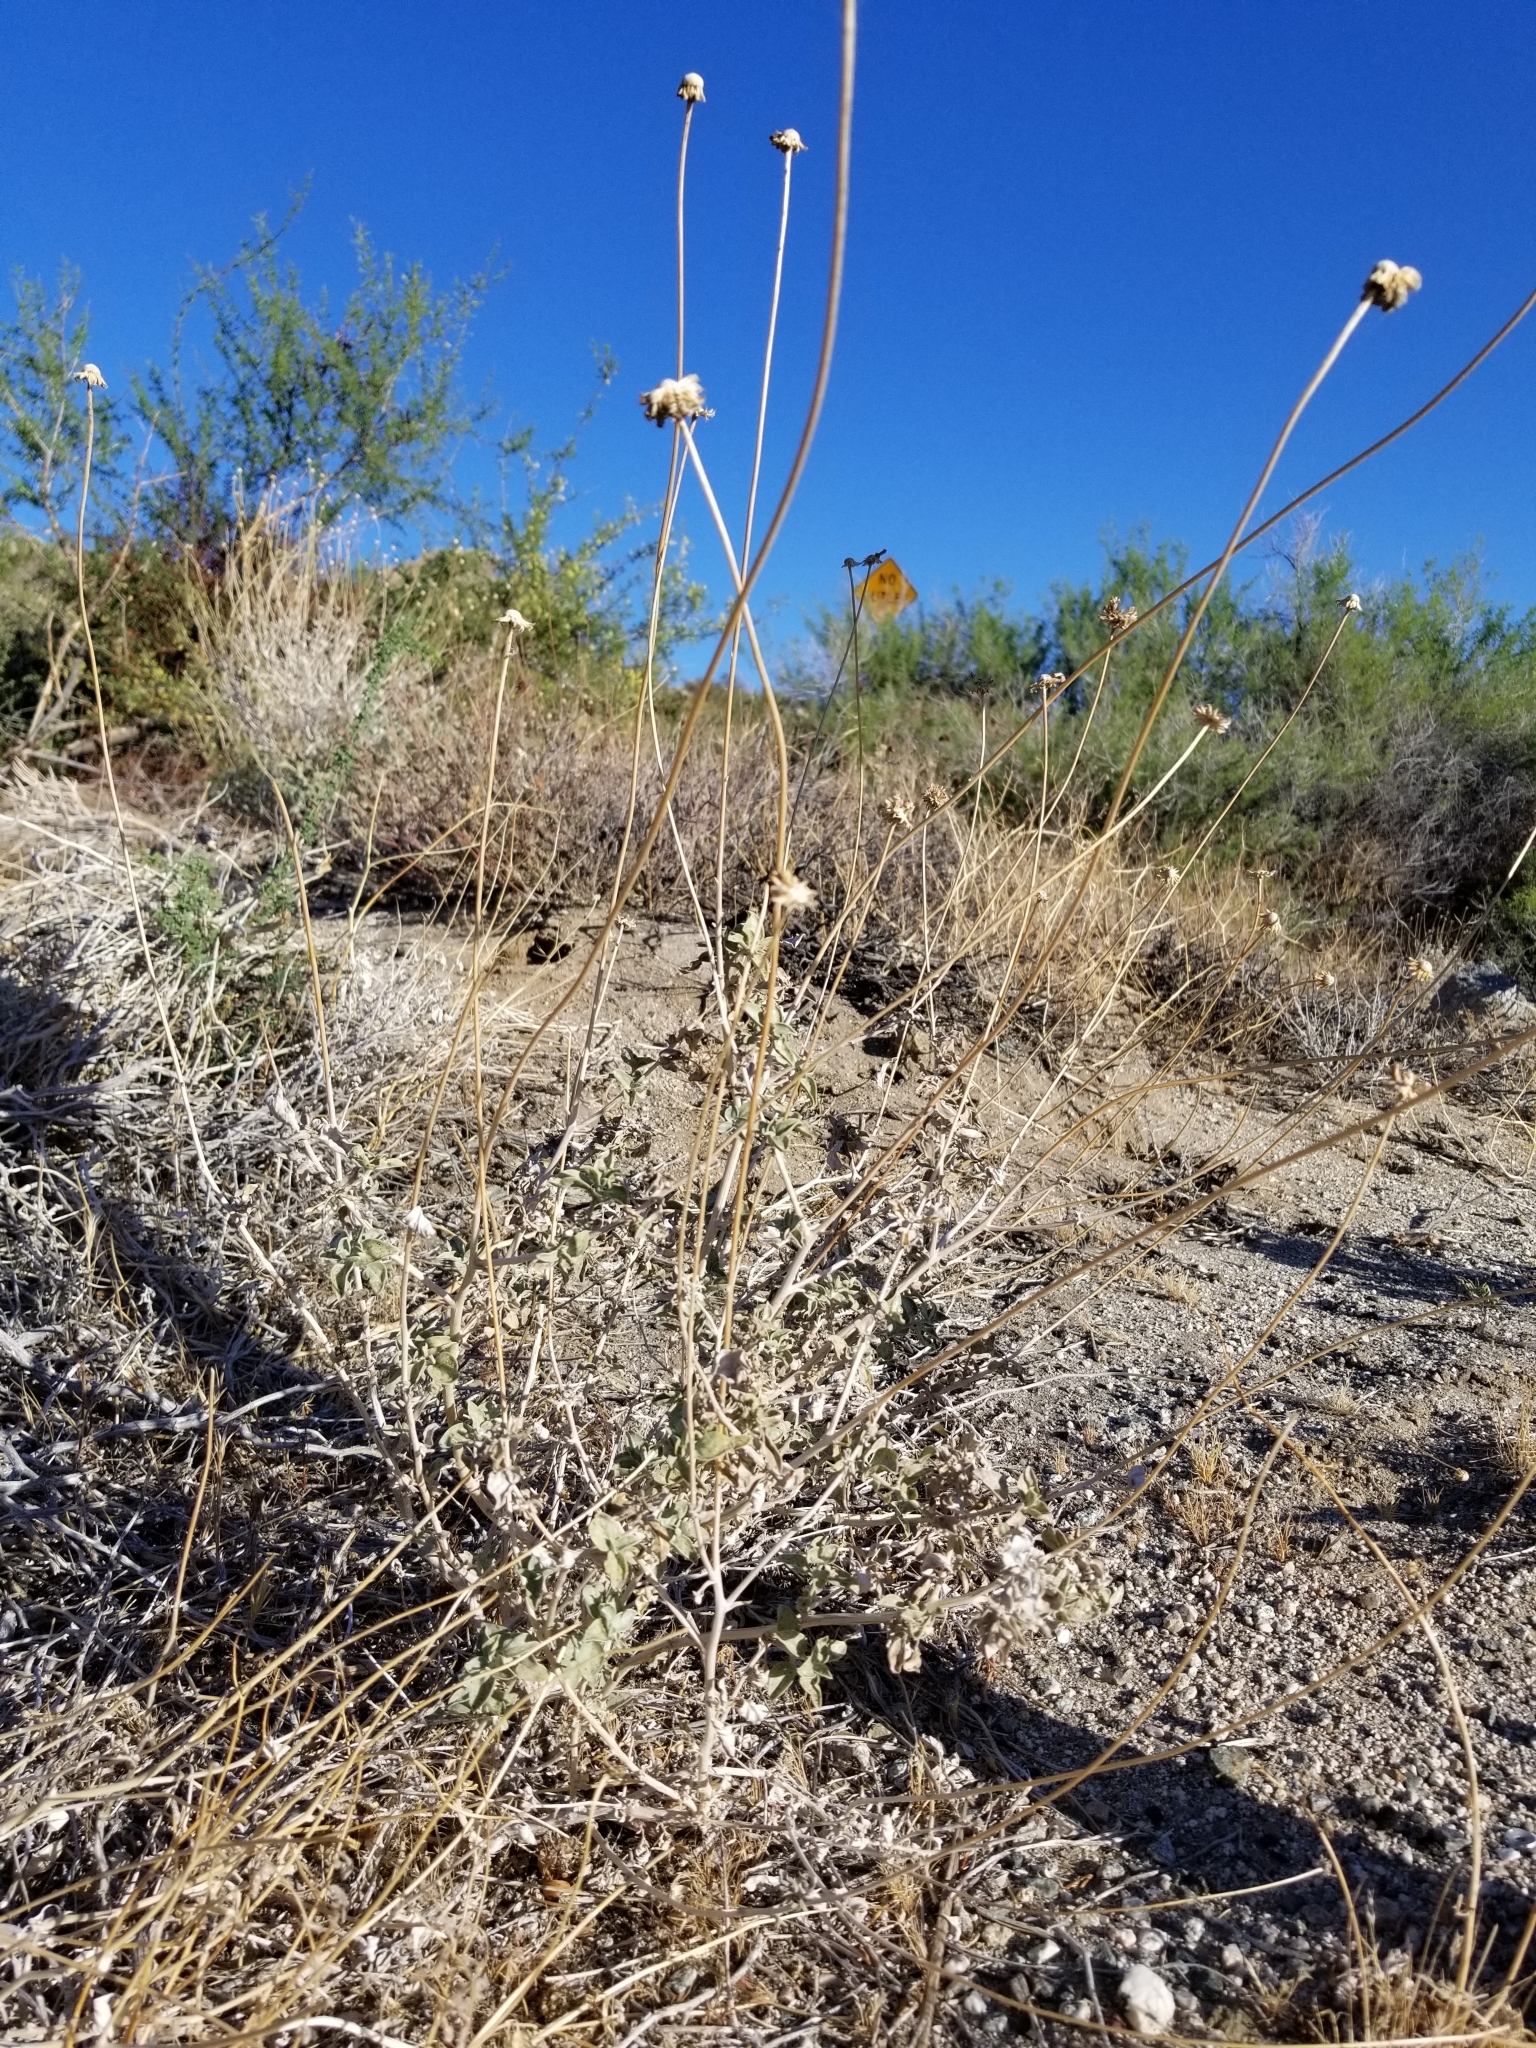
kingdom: Plantae
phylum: Tracheophyta
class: Magnoliopsida
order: Asterales
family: Asteraceae
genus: Encelia
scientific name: Encelia actoni
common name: Acton encelia
